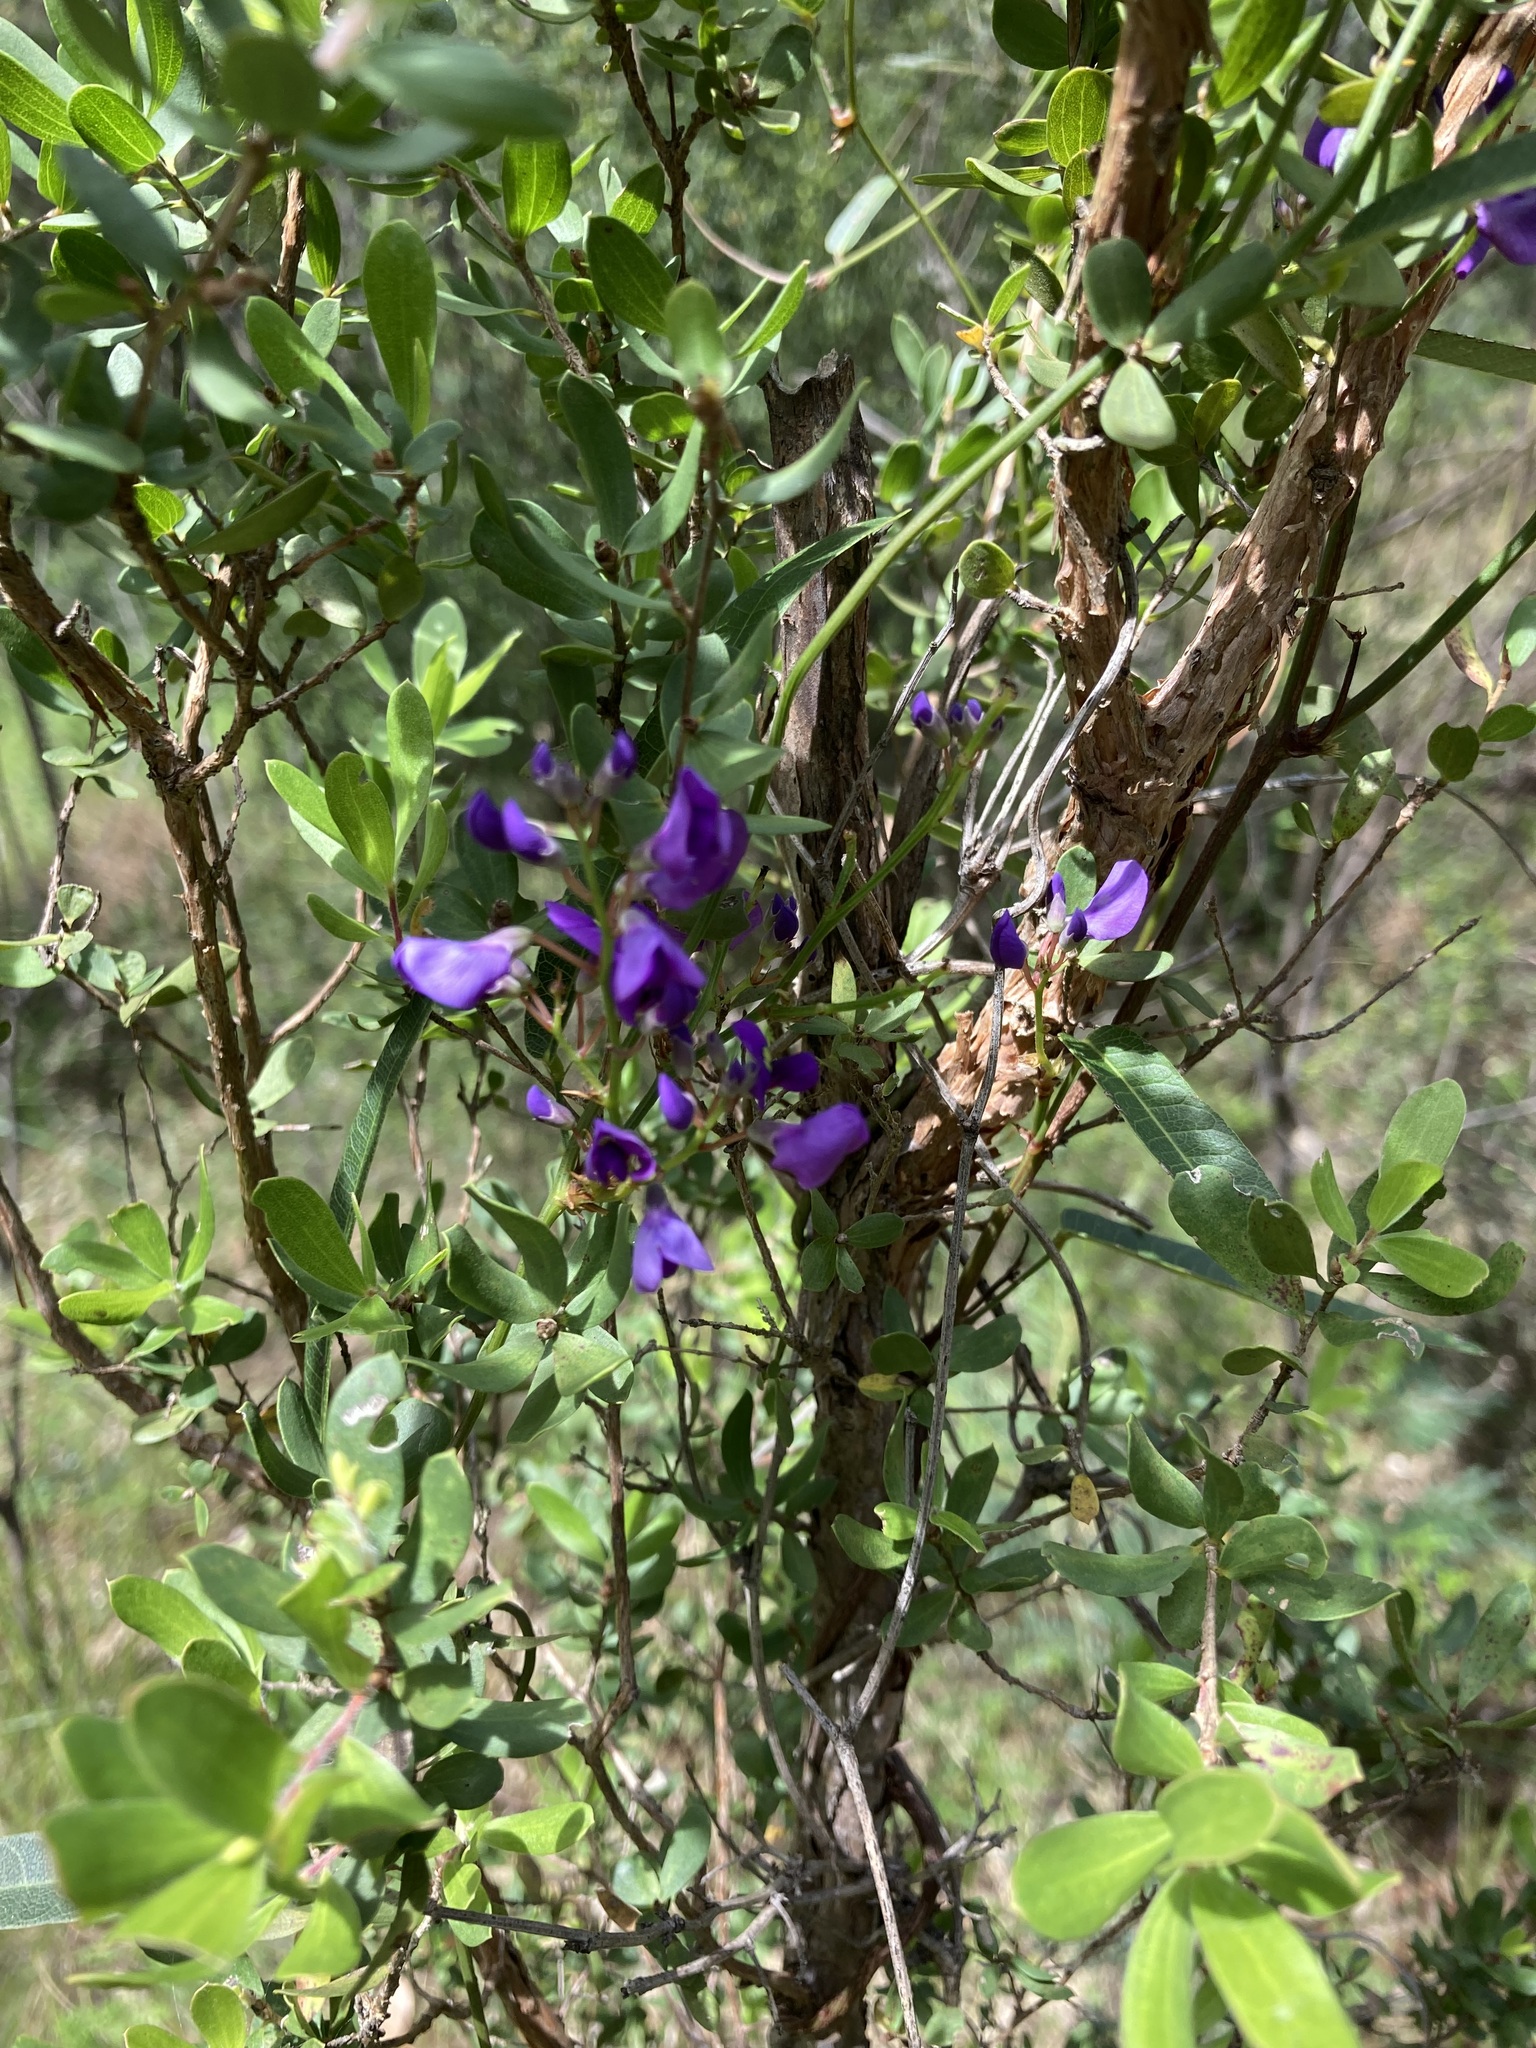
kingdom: Plantae
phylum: Tracheophyta
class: Magnoliopsida
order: Fabales
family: Fabaceae
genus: Hardenbergia
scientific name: Hardenbergia violacea
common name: Coral-pea
